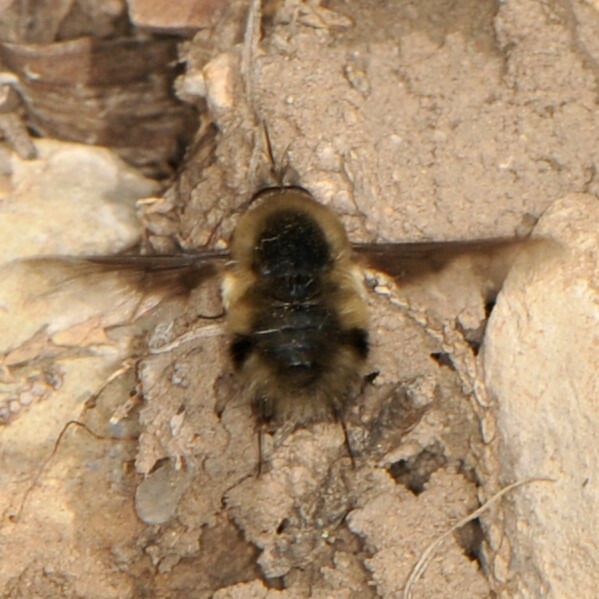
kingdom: Animalia
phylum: Arthropoda
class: Insecta
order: Diptera
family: Bombyliidae
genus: Bombylius
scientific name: Bombylius
